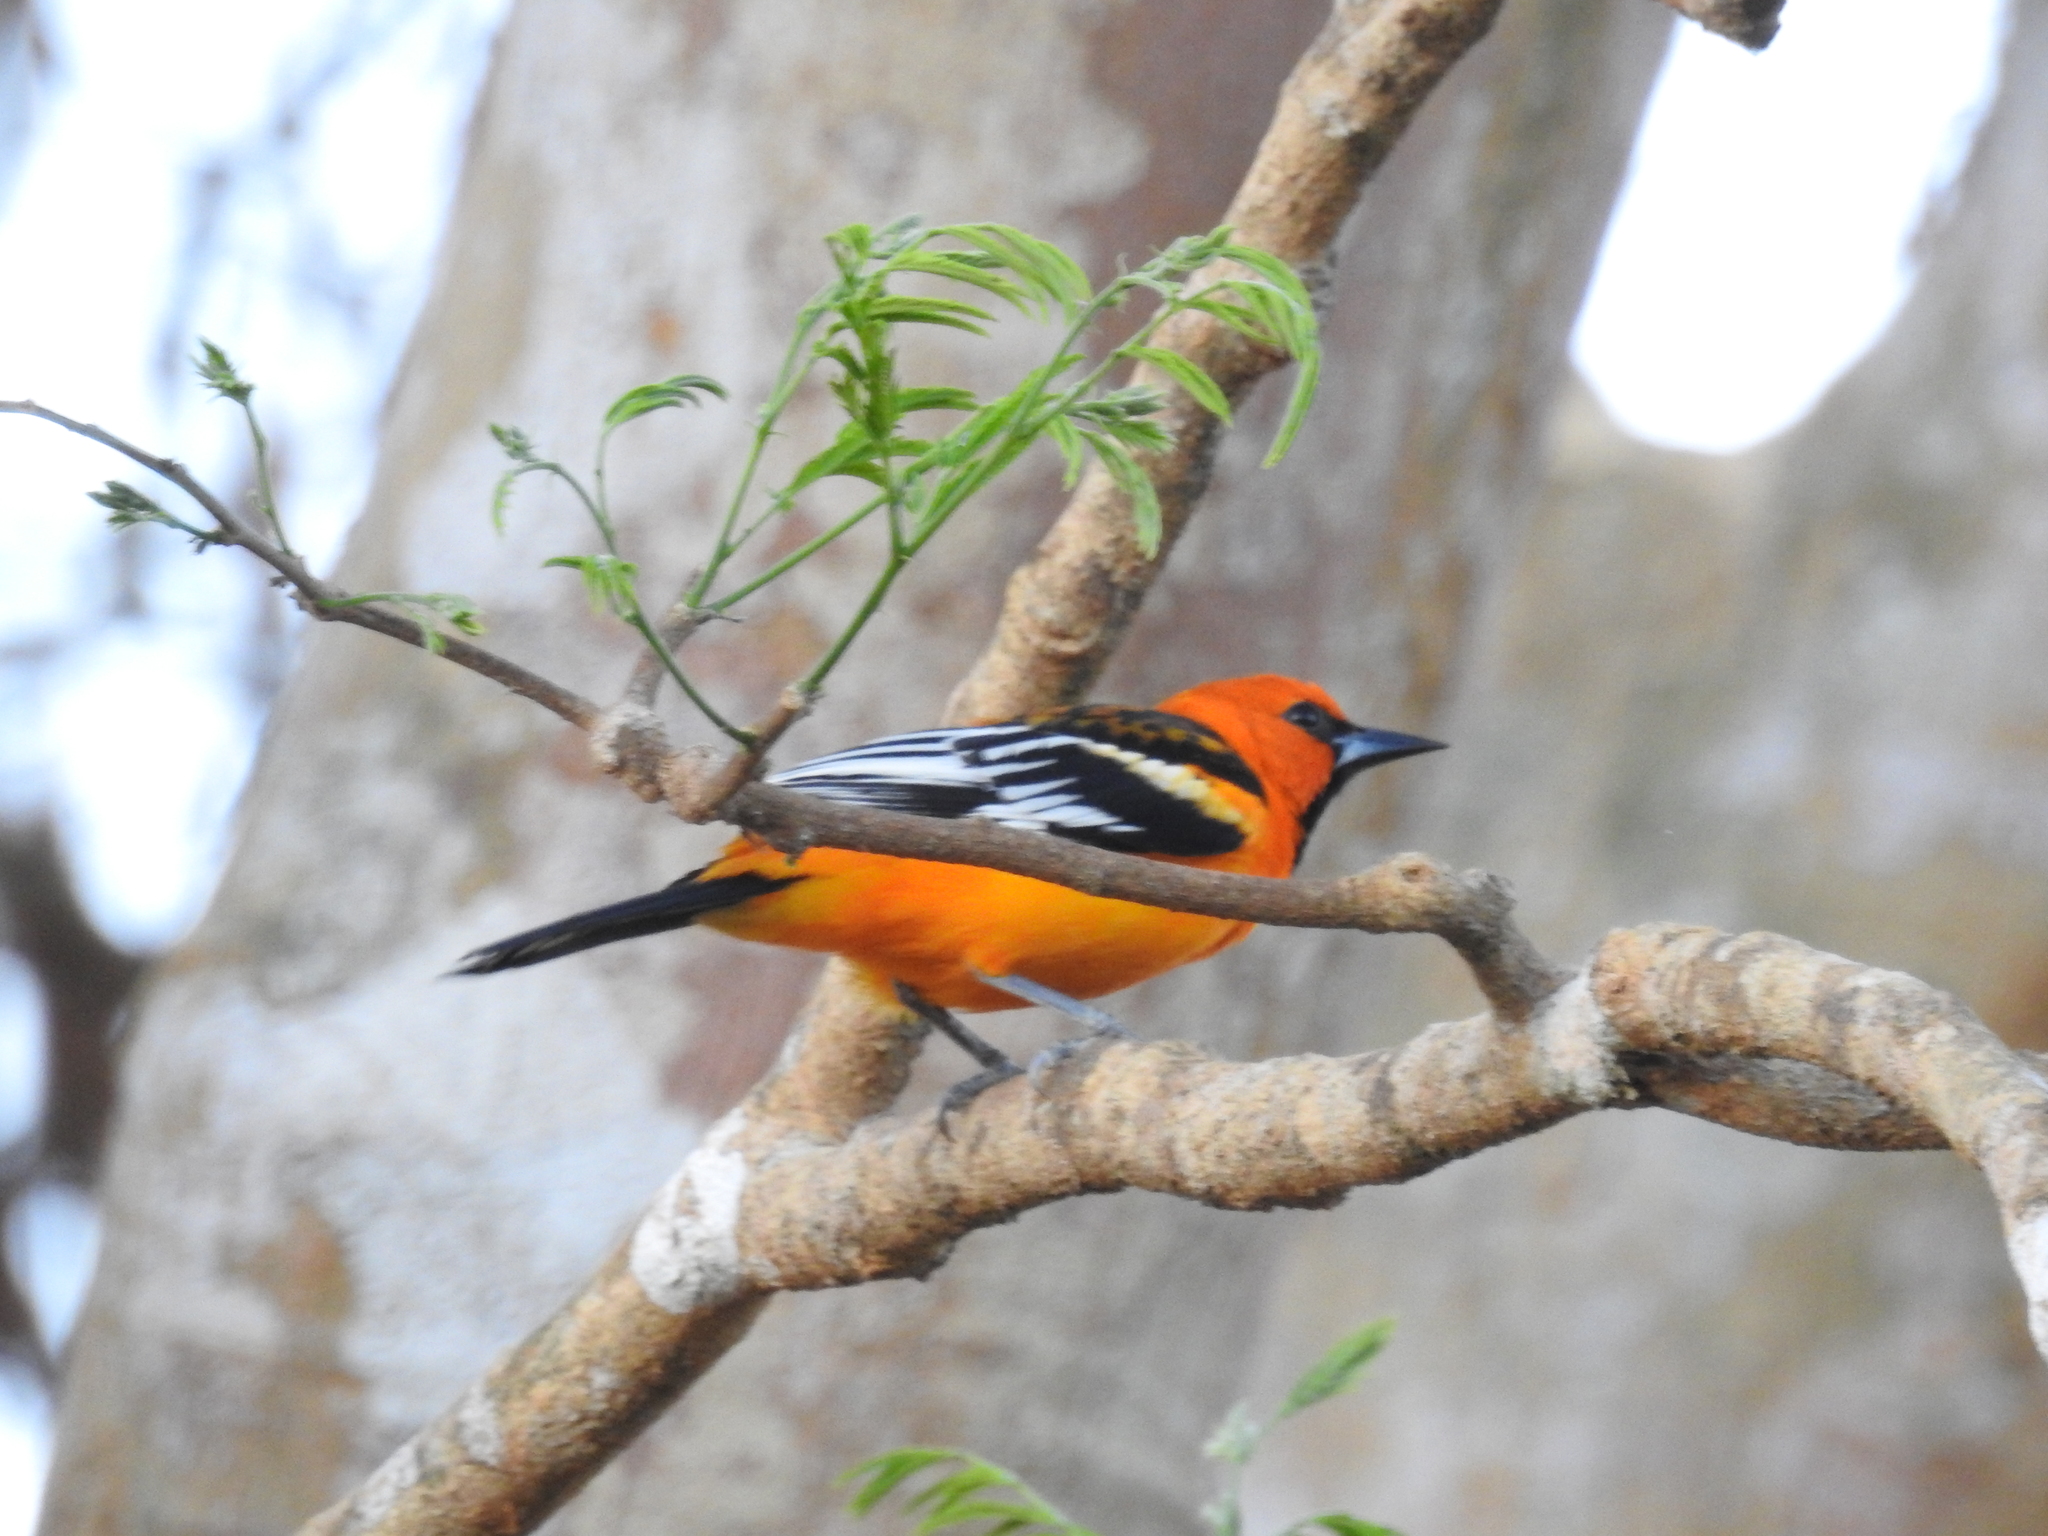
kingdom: Animalia
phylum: Chordata
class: Aves
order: Passeriformes
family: Icteridae
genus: Icterus
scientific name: Icterus pustulatus
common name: Streak-backed oriole
